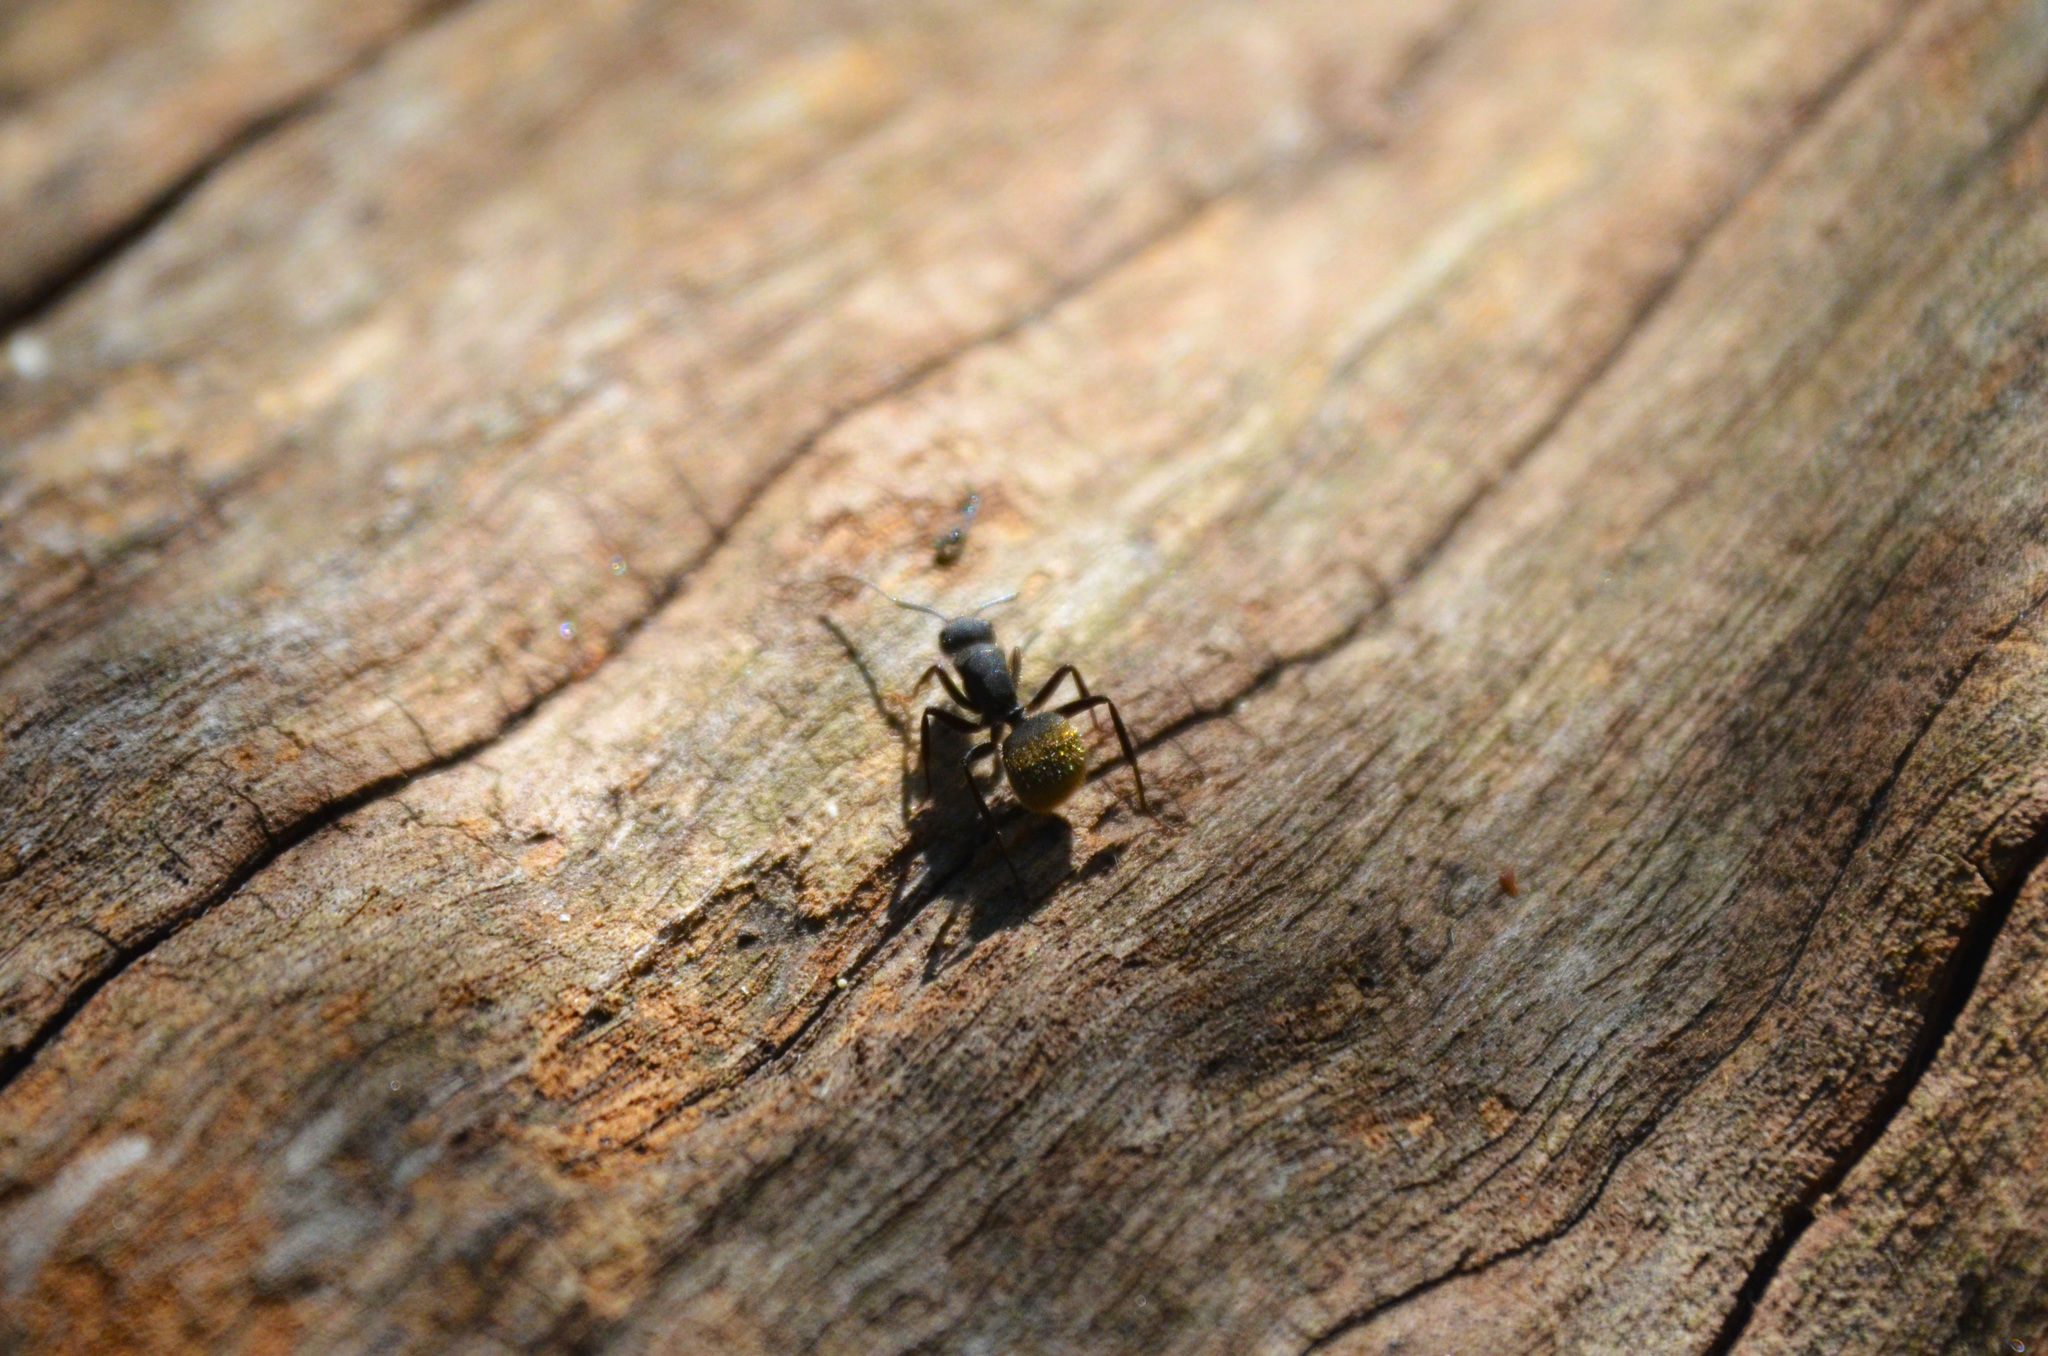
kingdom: Animalia
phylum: Arthropoda
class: Insecta
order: Hymenoptera
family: Formicidae
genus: Camponotus
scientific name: Camponotus mus
